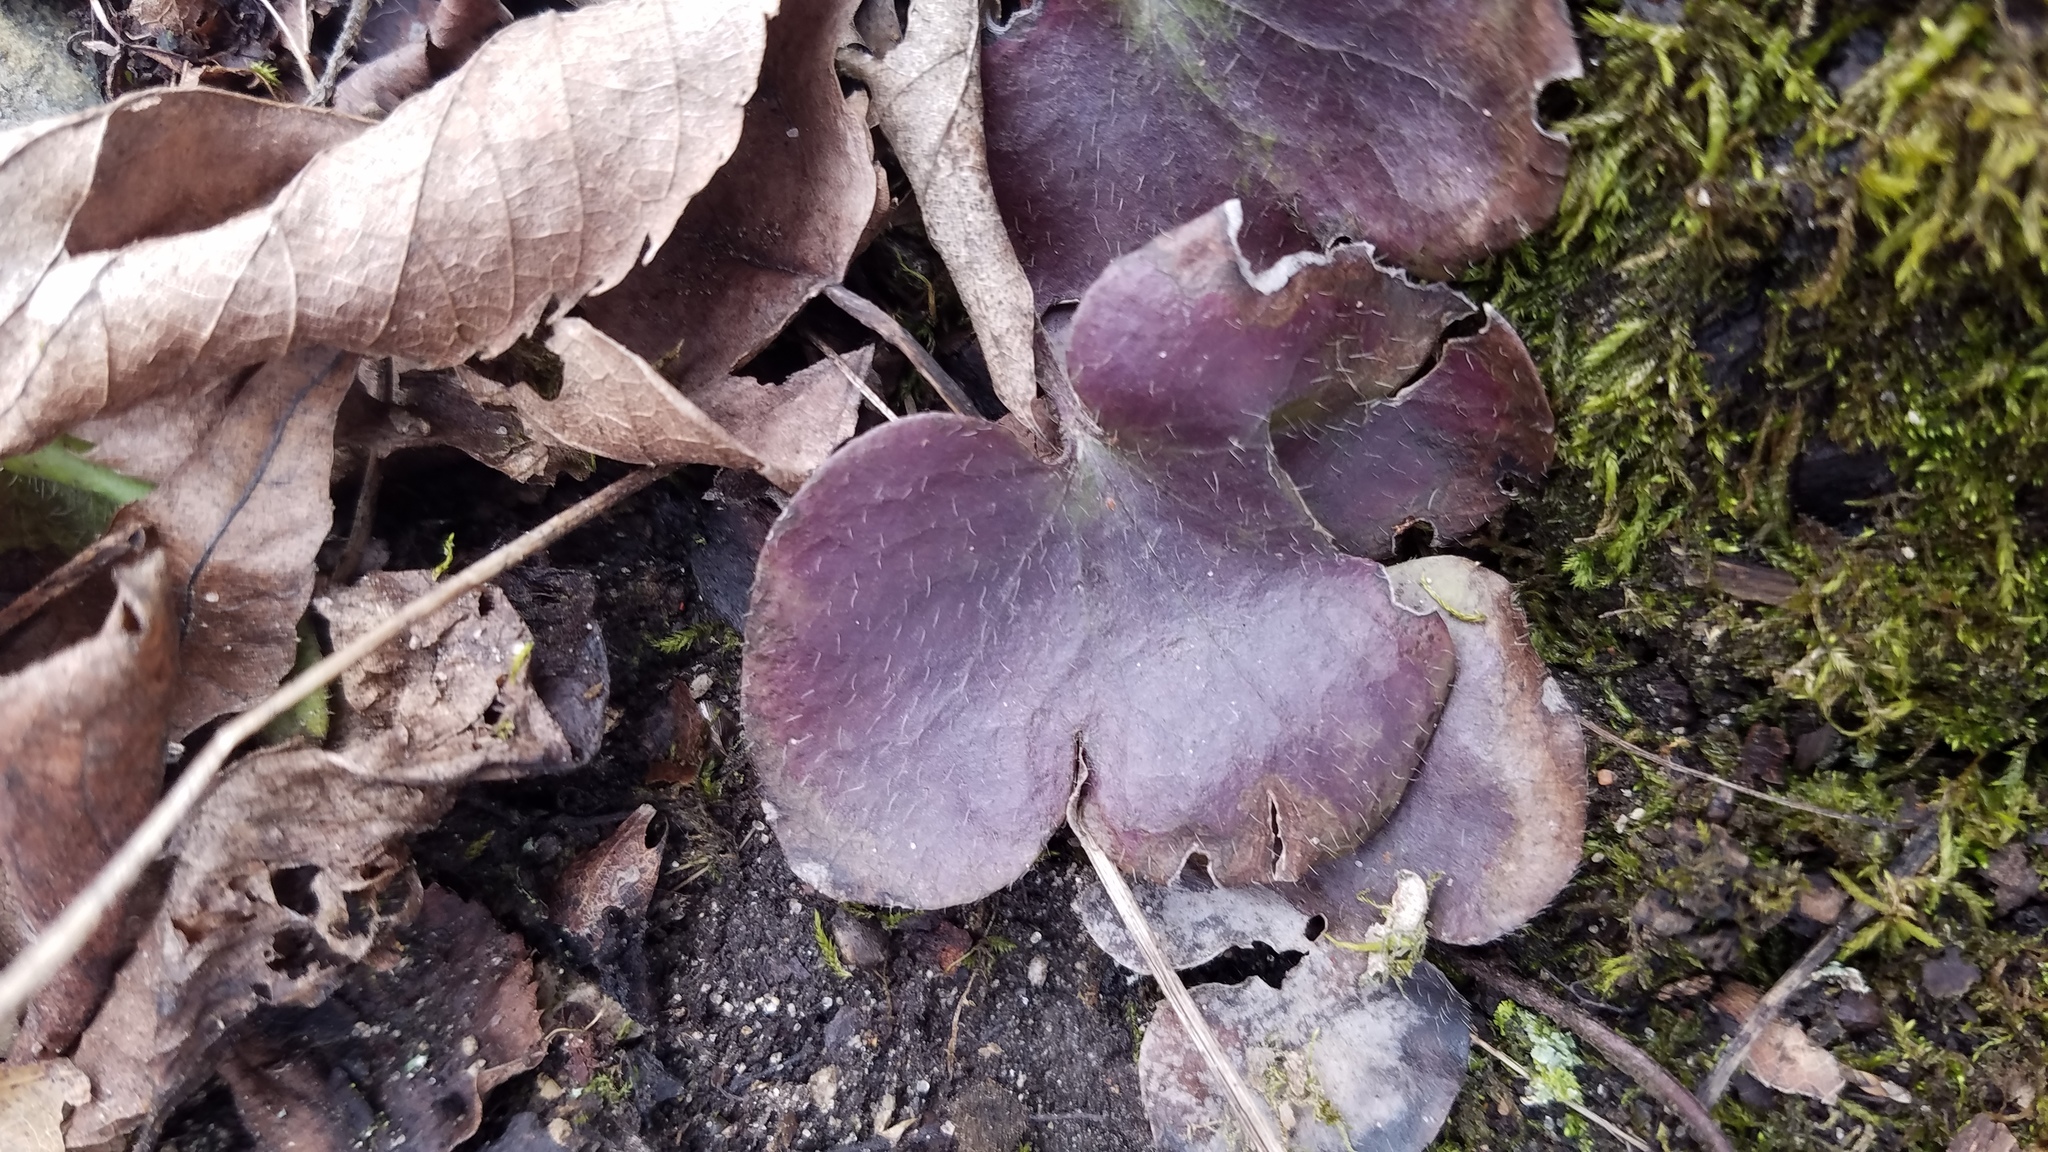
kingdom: Plantae
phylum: Tracheophyta
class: Magnoliopsida
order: Ranunculales
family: Ranunculaceae
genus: Hepatica
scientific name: Hepatica americana
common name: American hepatica
